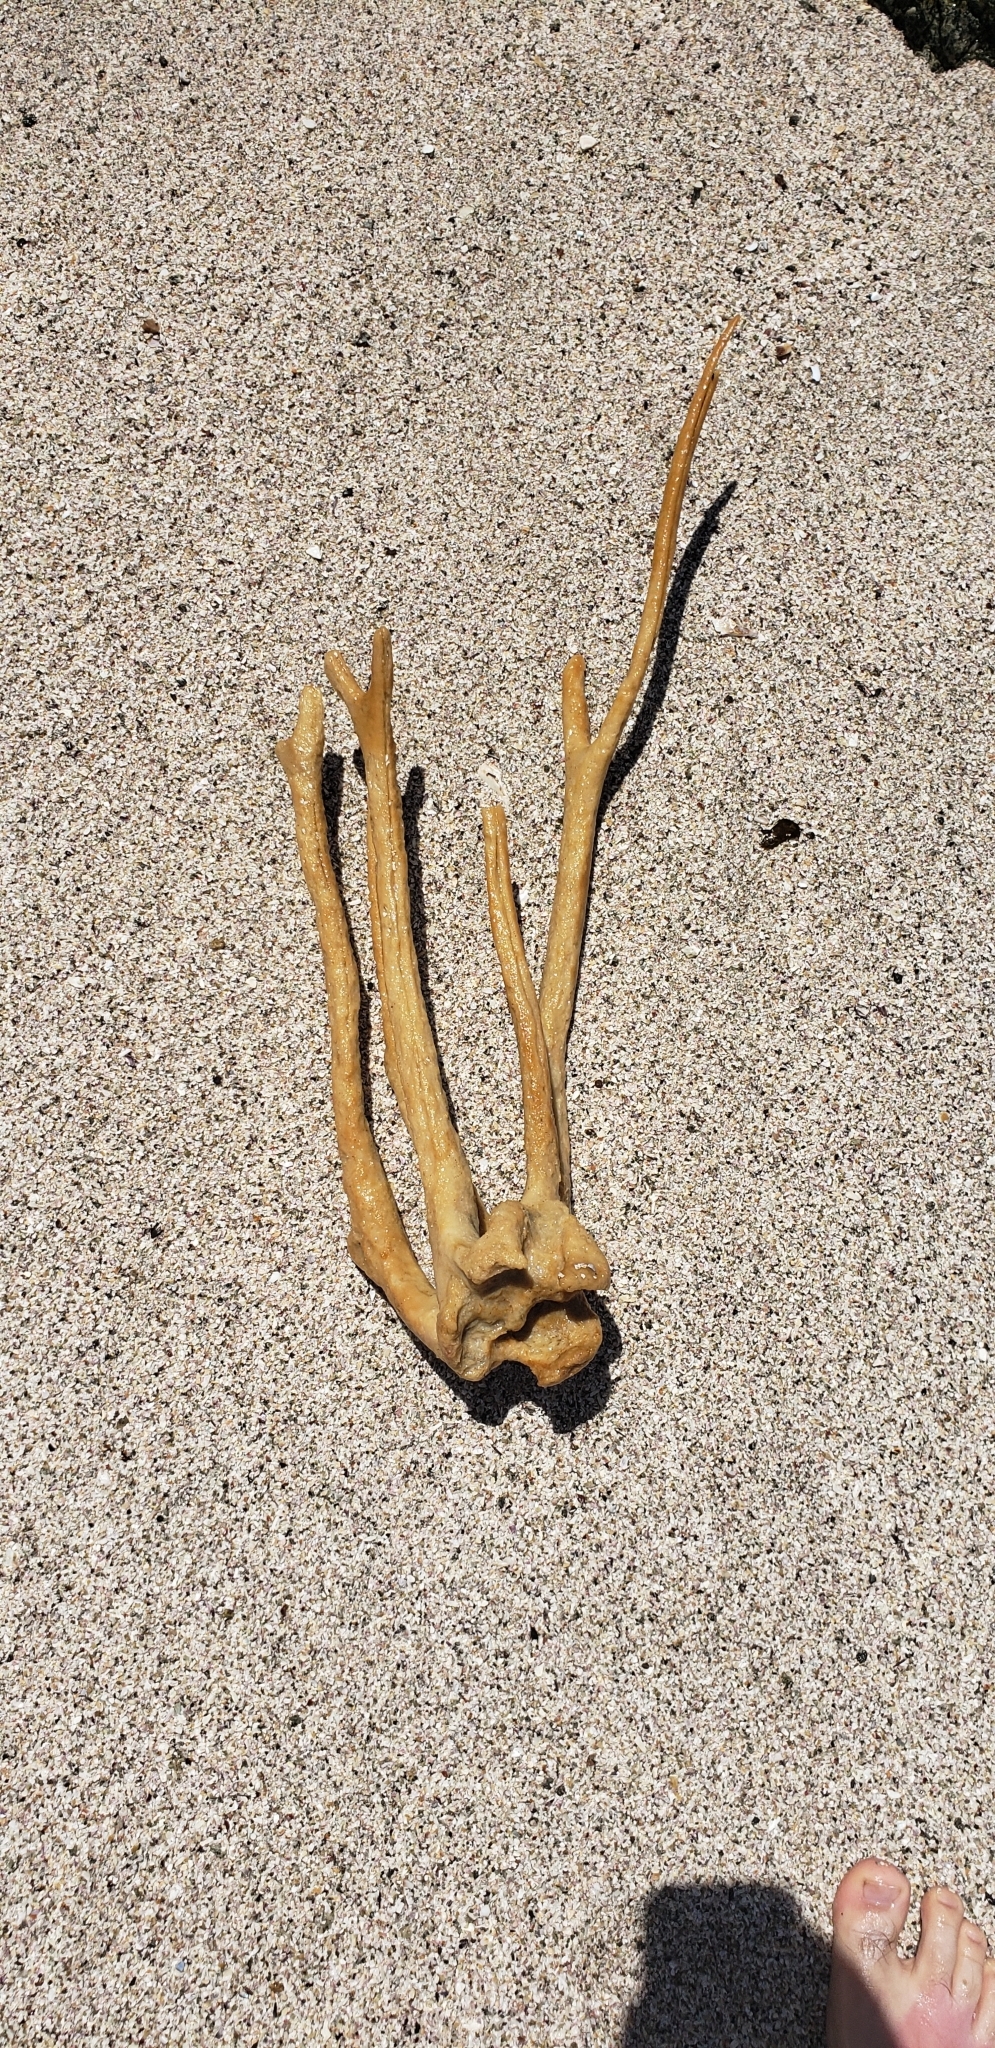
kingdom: Chromista
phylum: Ochrophyta
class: Phaeophyceae
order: Laminariales
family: Lessoniaceae
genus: Lessonia
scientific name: Lessonia trabeculata
